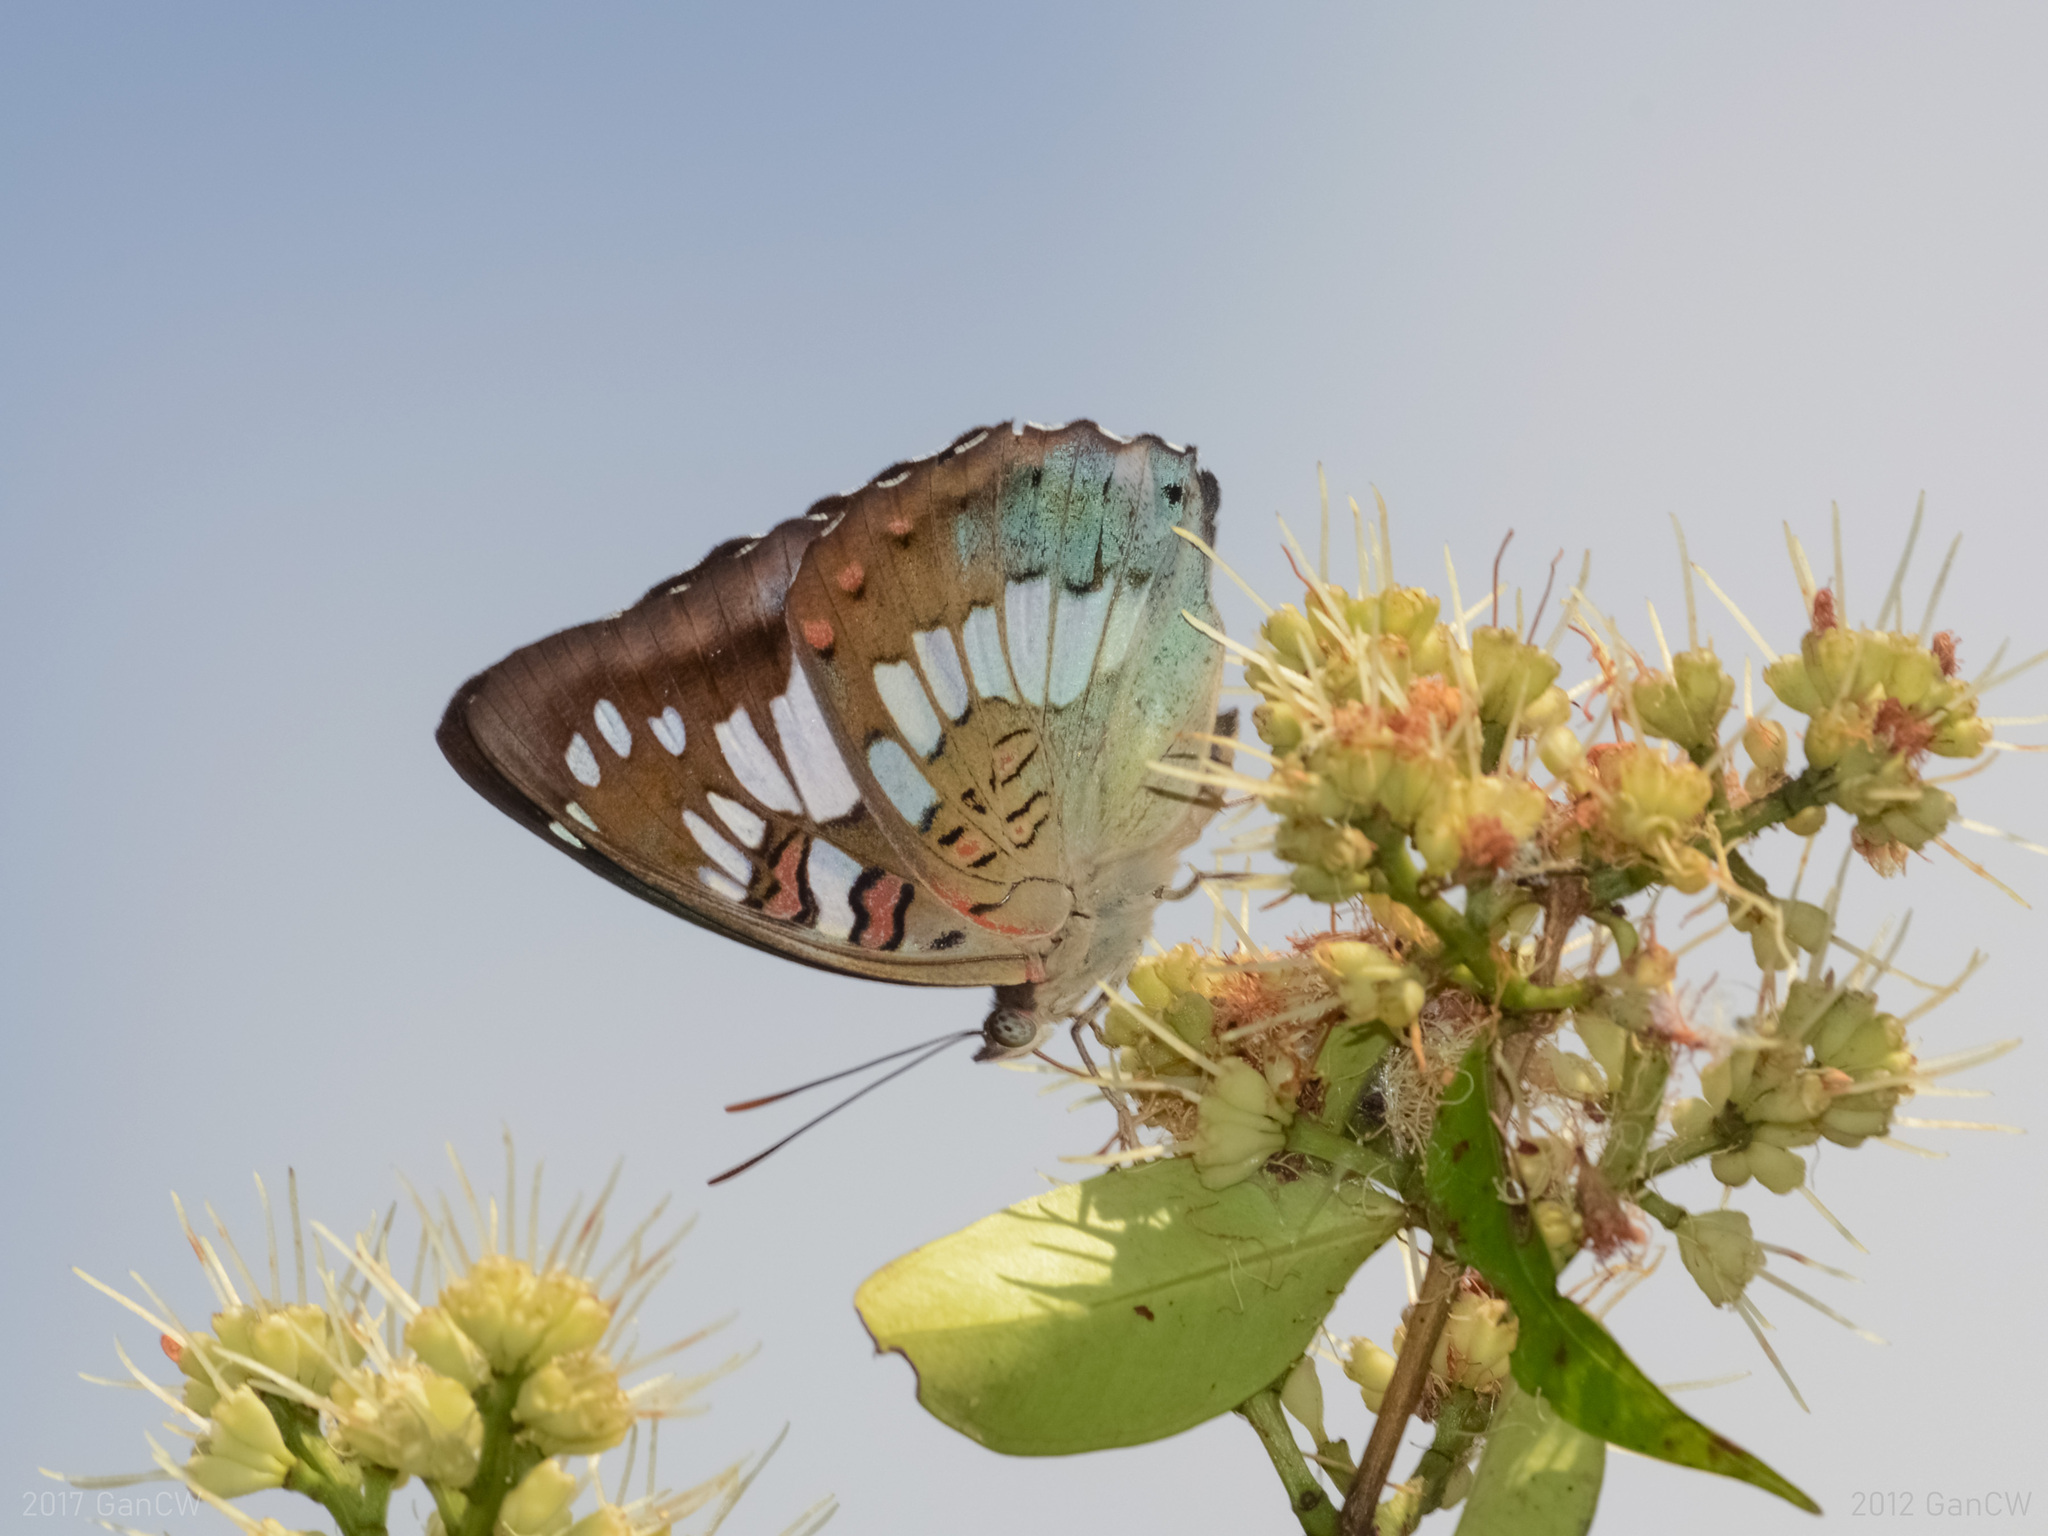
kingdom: Animalia
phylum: Arthropoda
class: Insecta
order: Lepidoptera
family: Nymphalidae
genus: Euthalia
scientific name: Euthalia adonia
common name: Green baron
